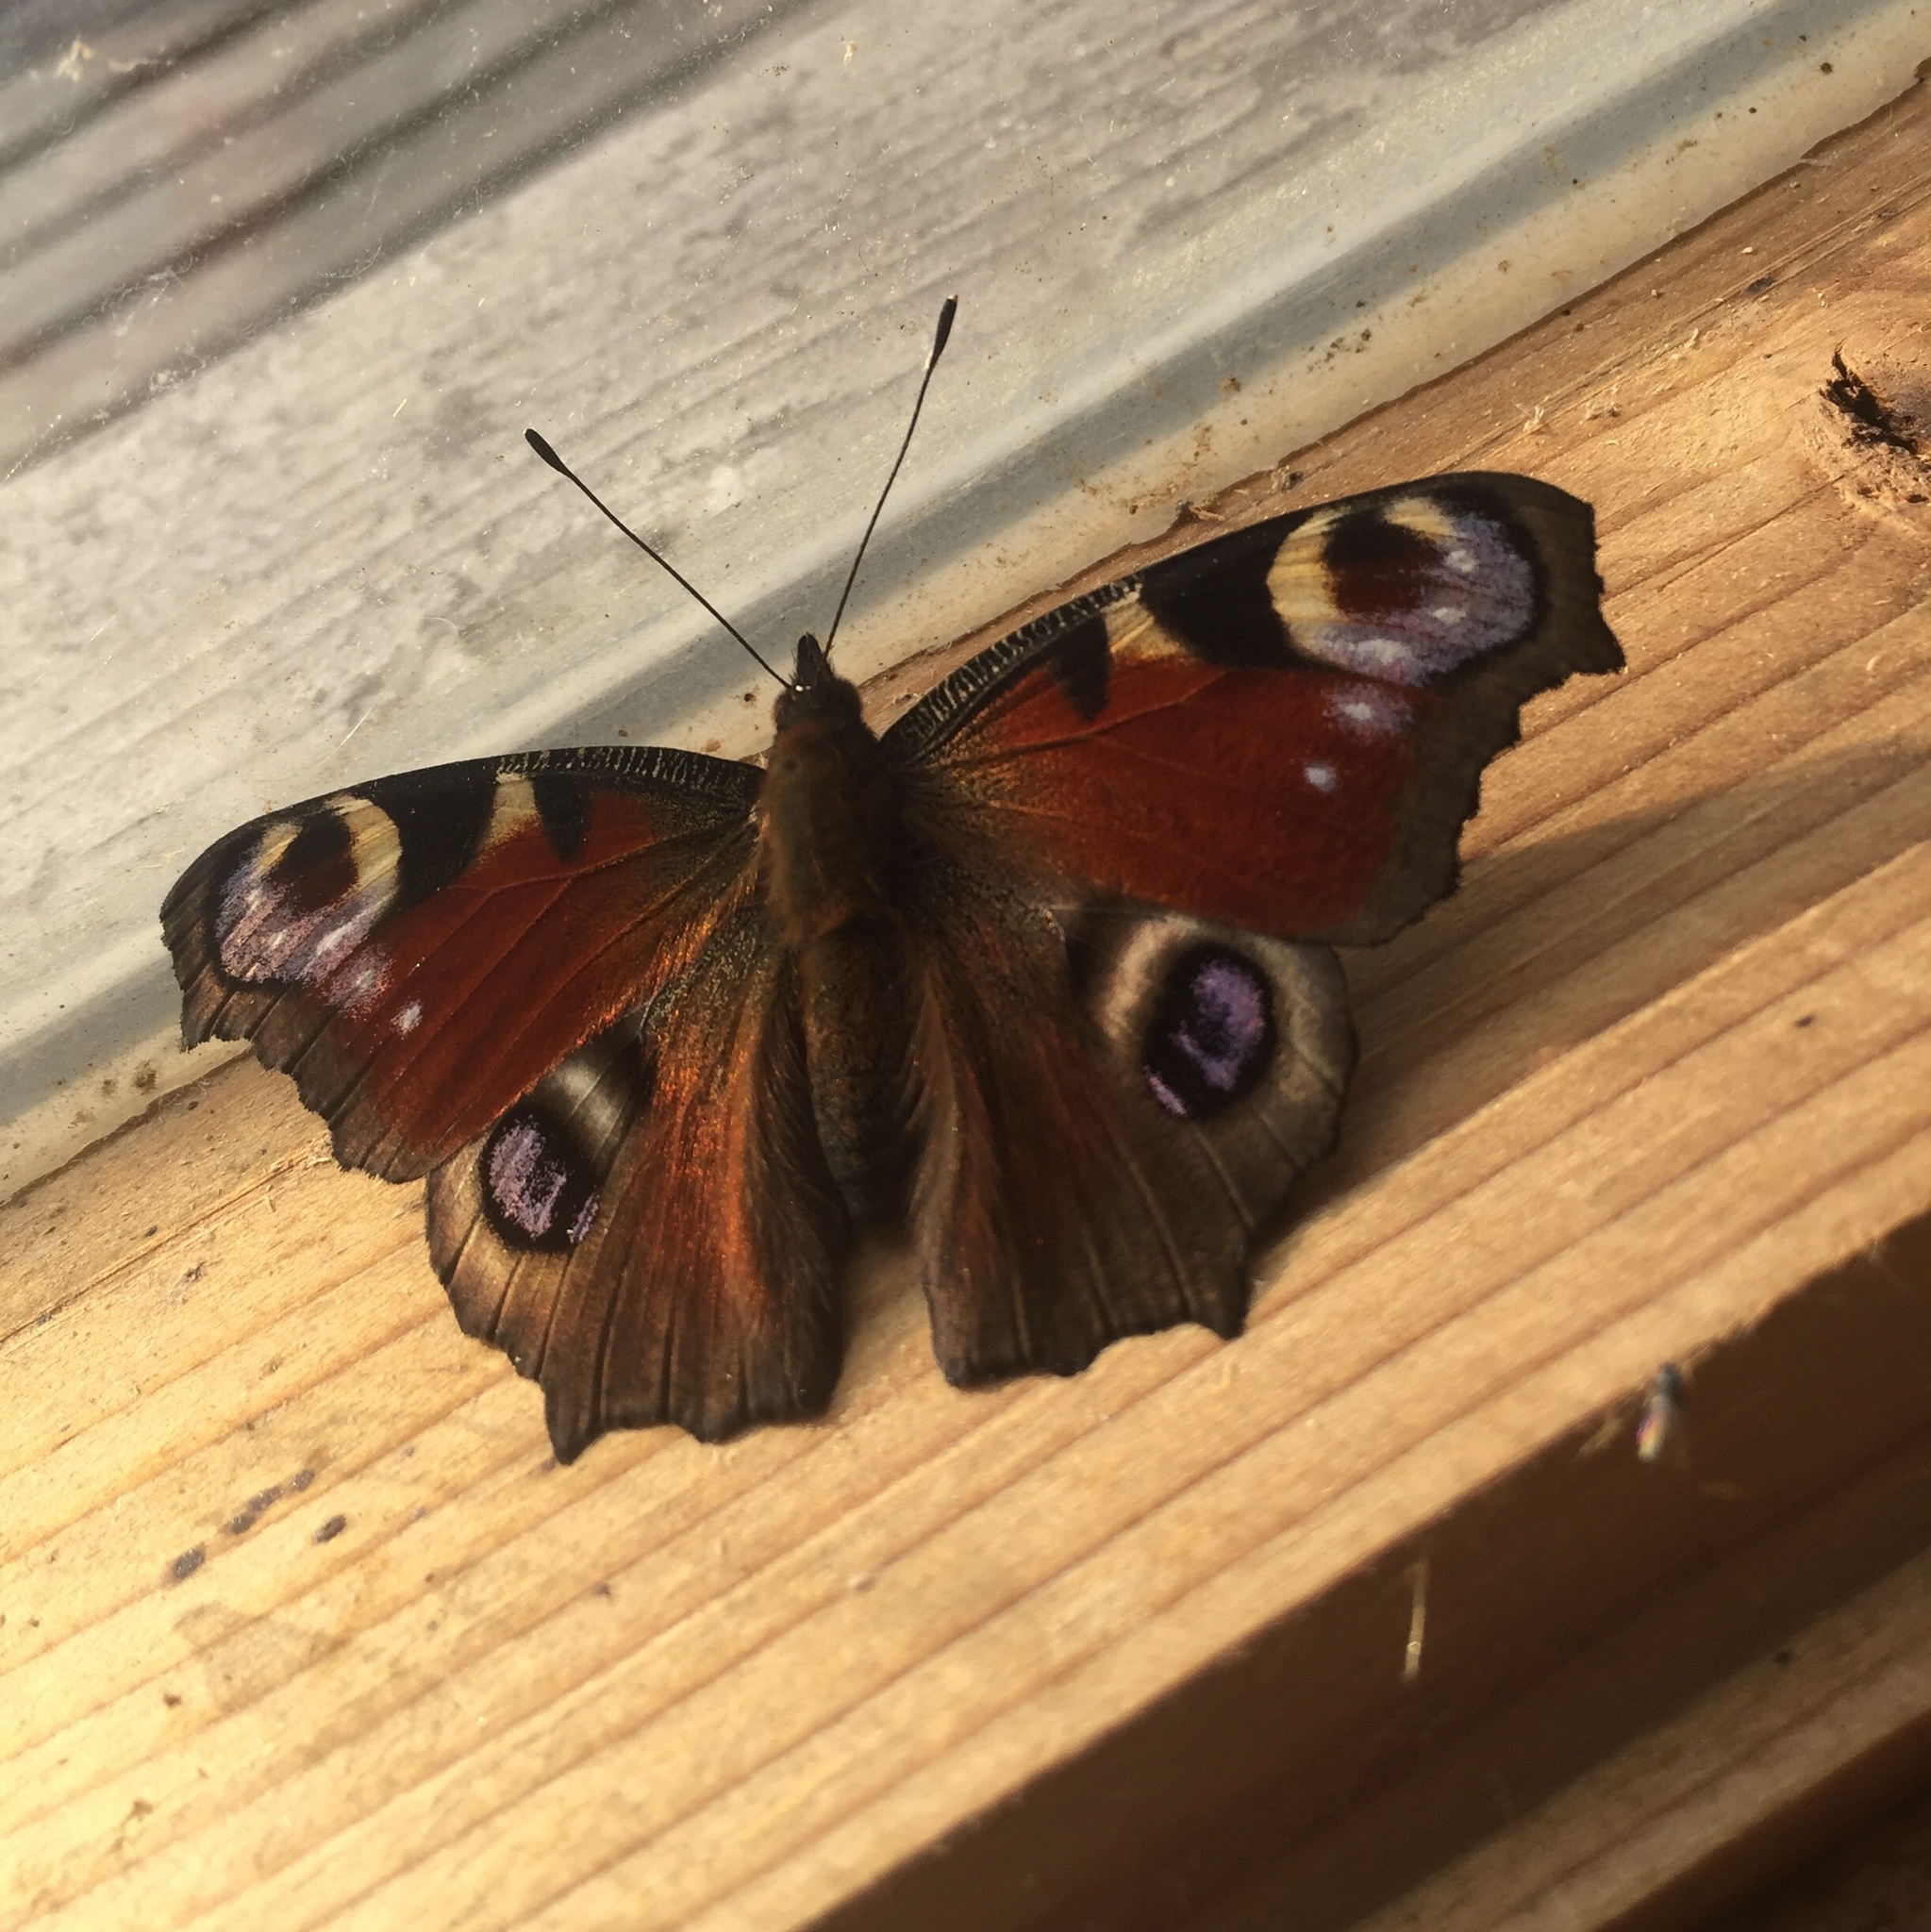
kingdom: Animalia
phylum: Arthropoda
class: Insecta
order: Lepidoptera
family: Nymphalidae
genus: Aglais
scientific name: Aglais io
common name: Peacock
